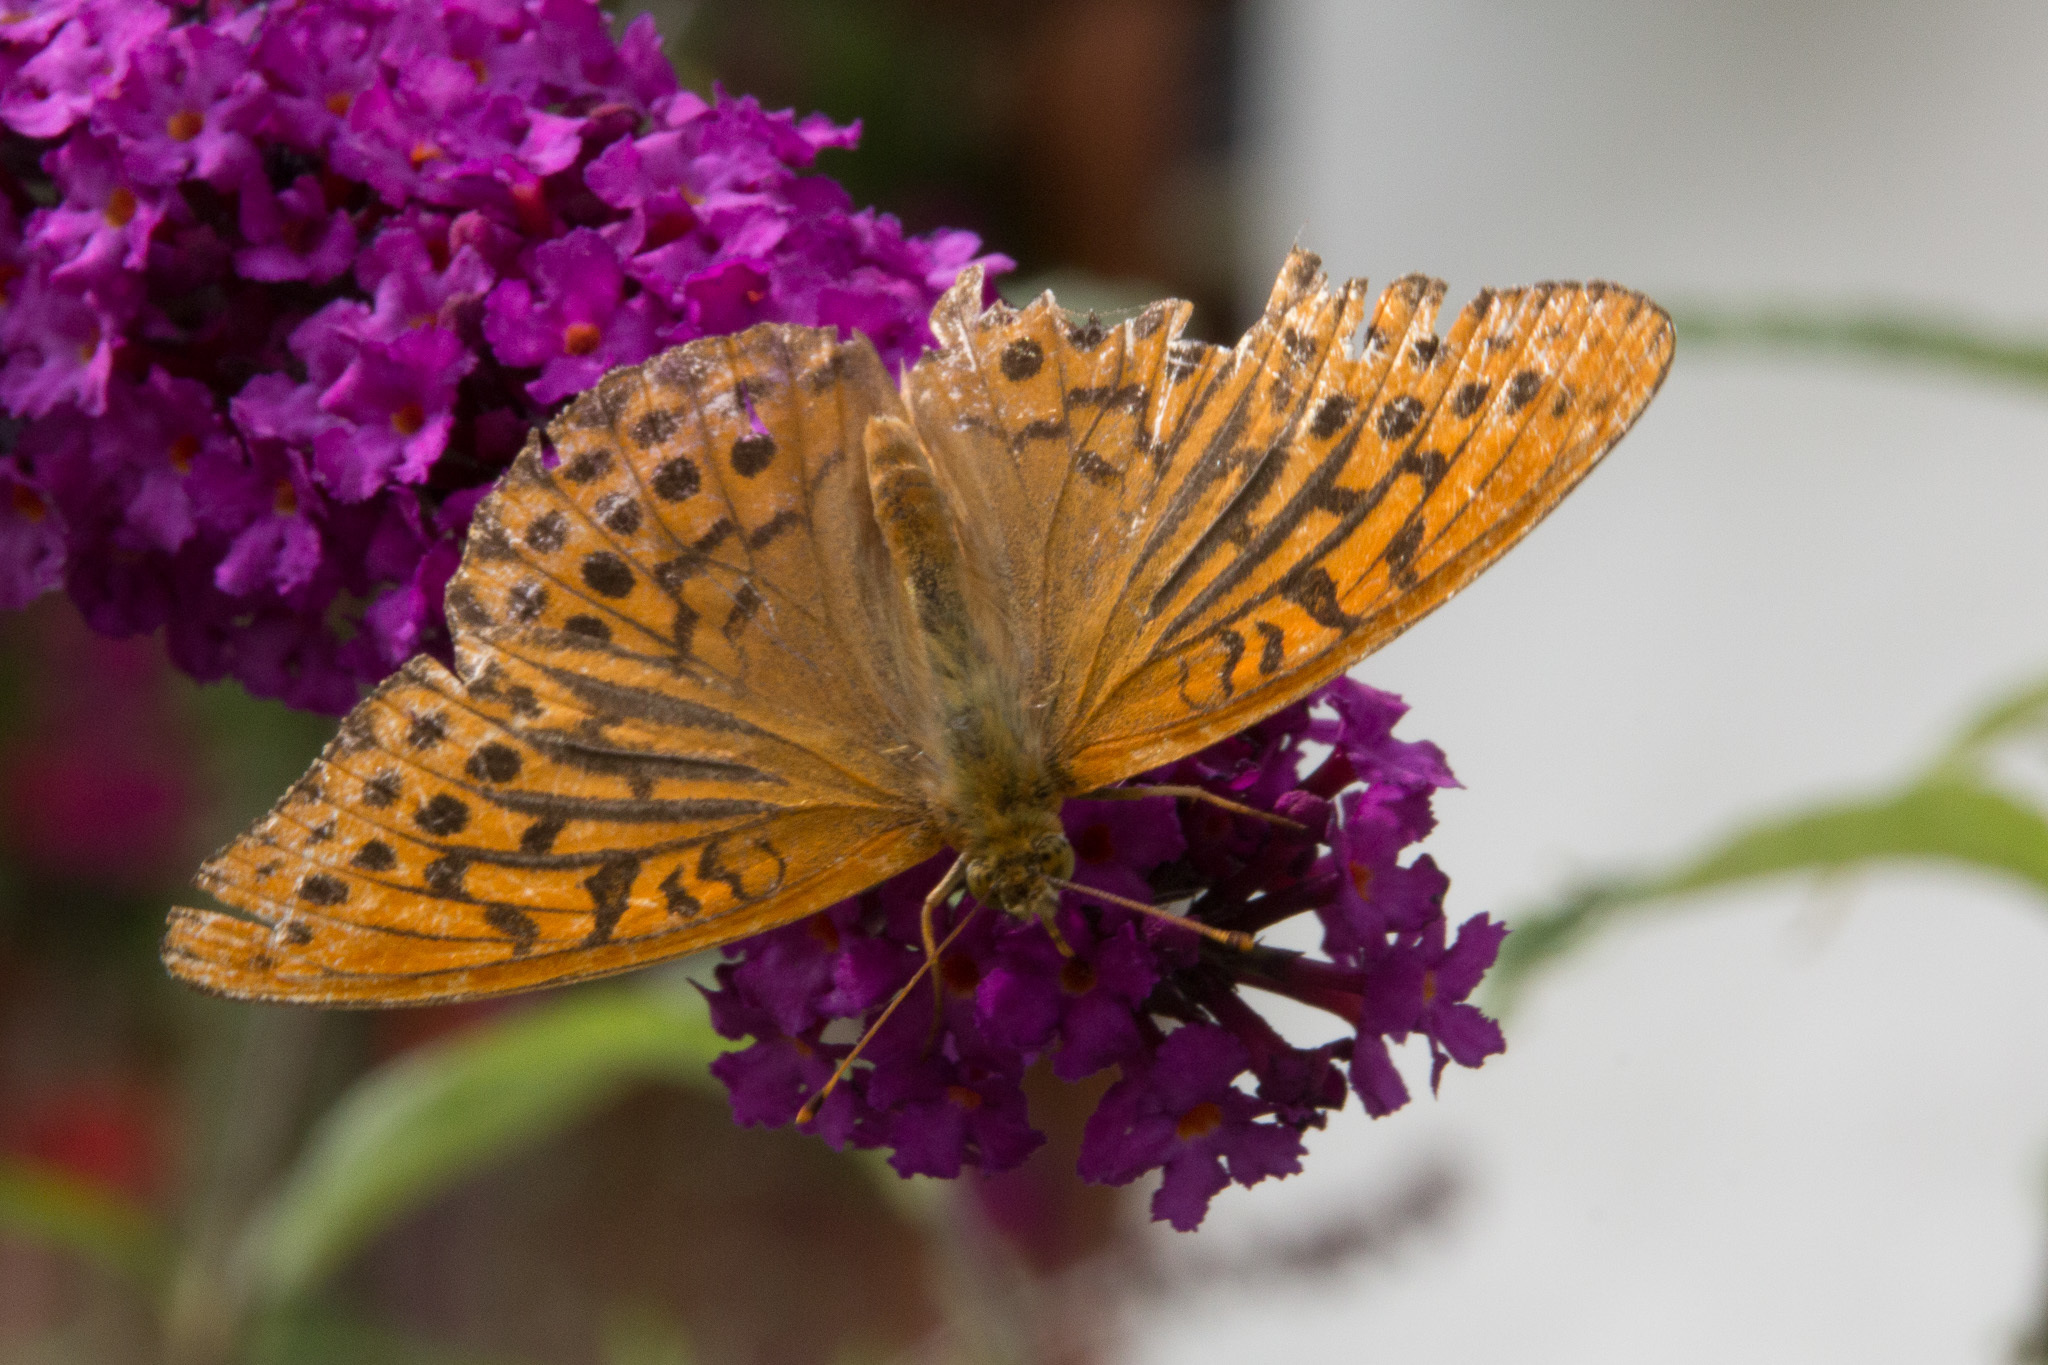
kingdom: Animalia
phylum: Arthropoda
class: Insecta
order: Lepidoptera
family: Nymphalidae
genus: Argynnis
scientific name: Argynnis paphia
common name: Silver-washed fritillary
